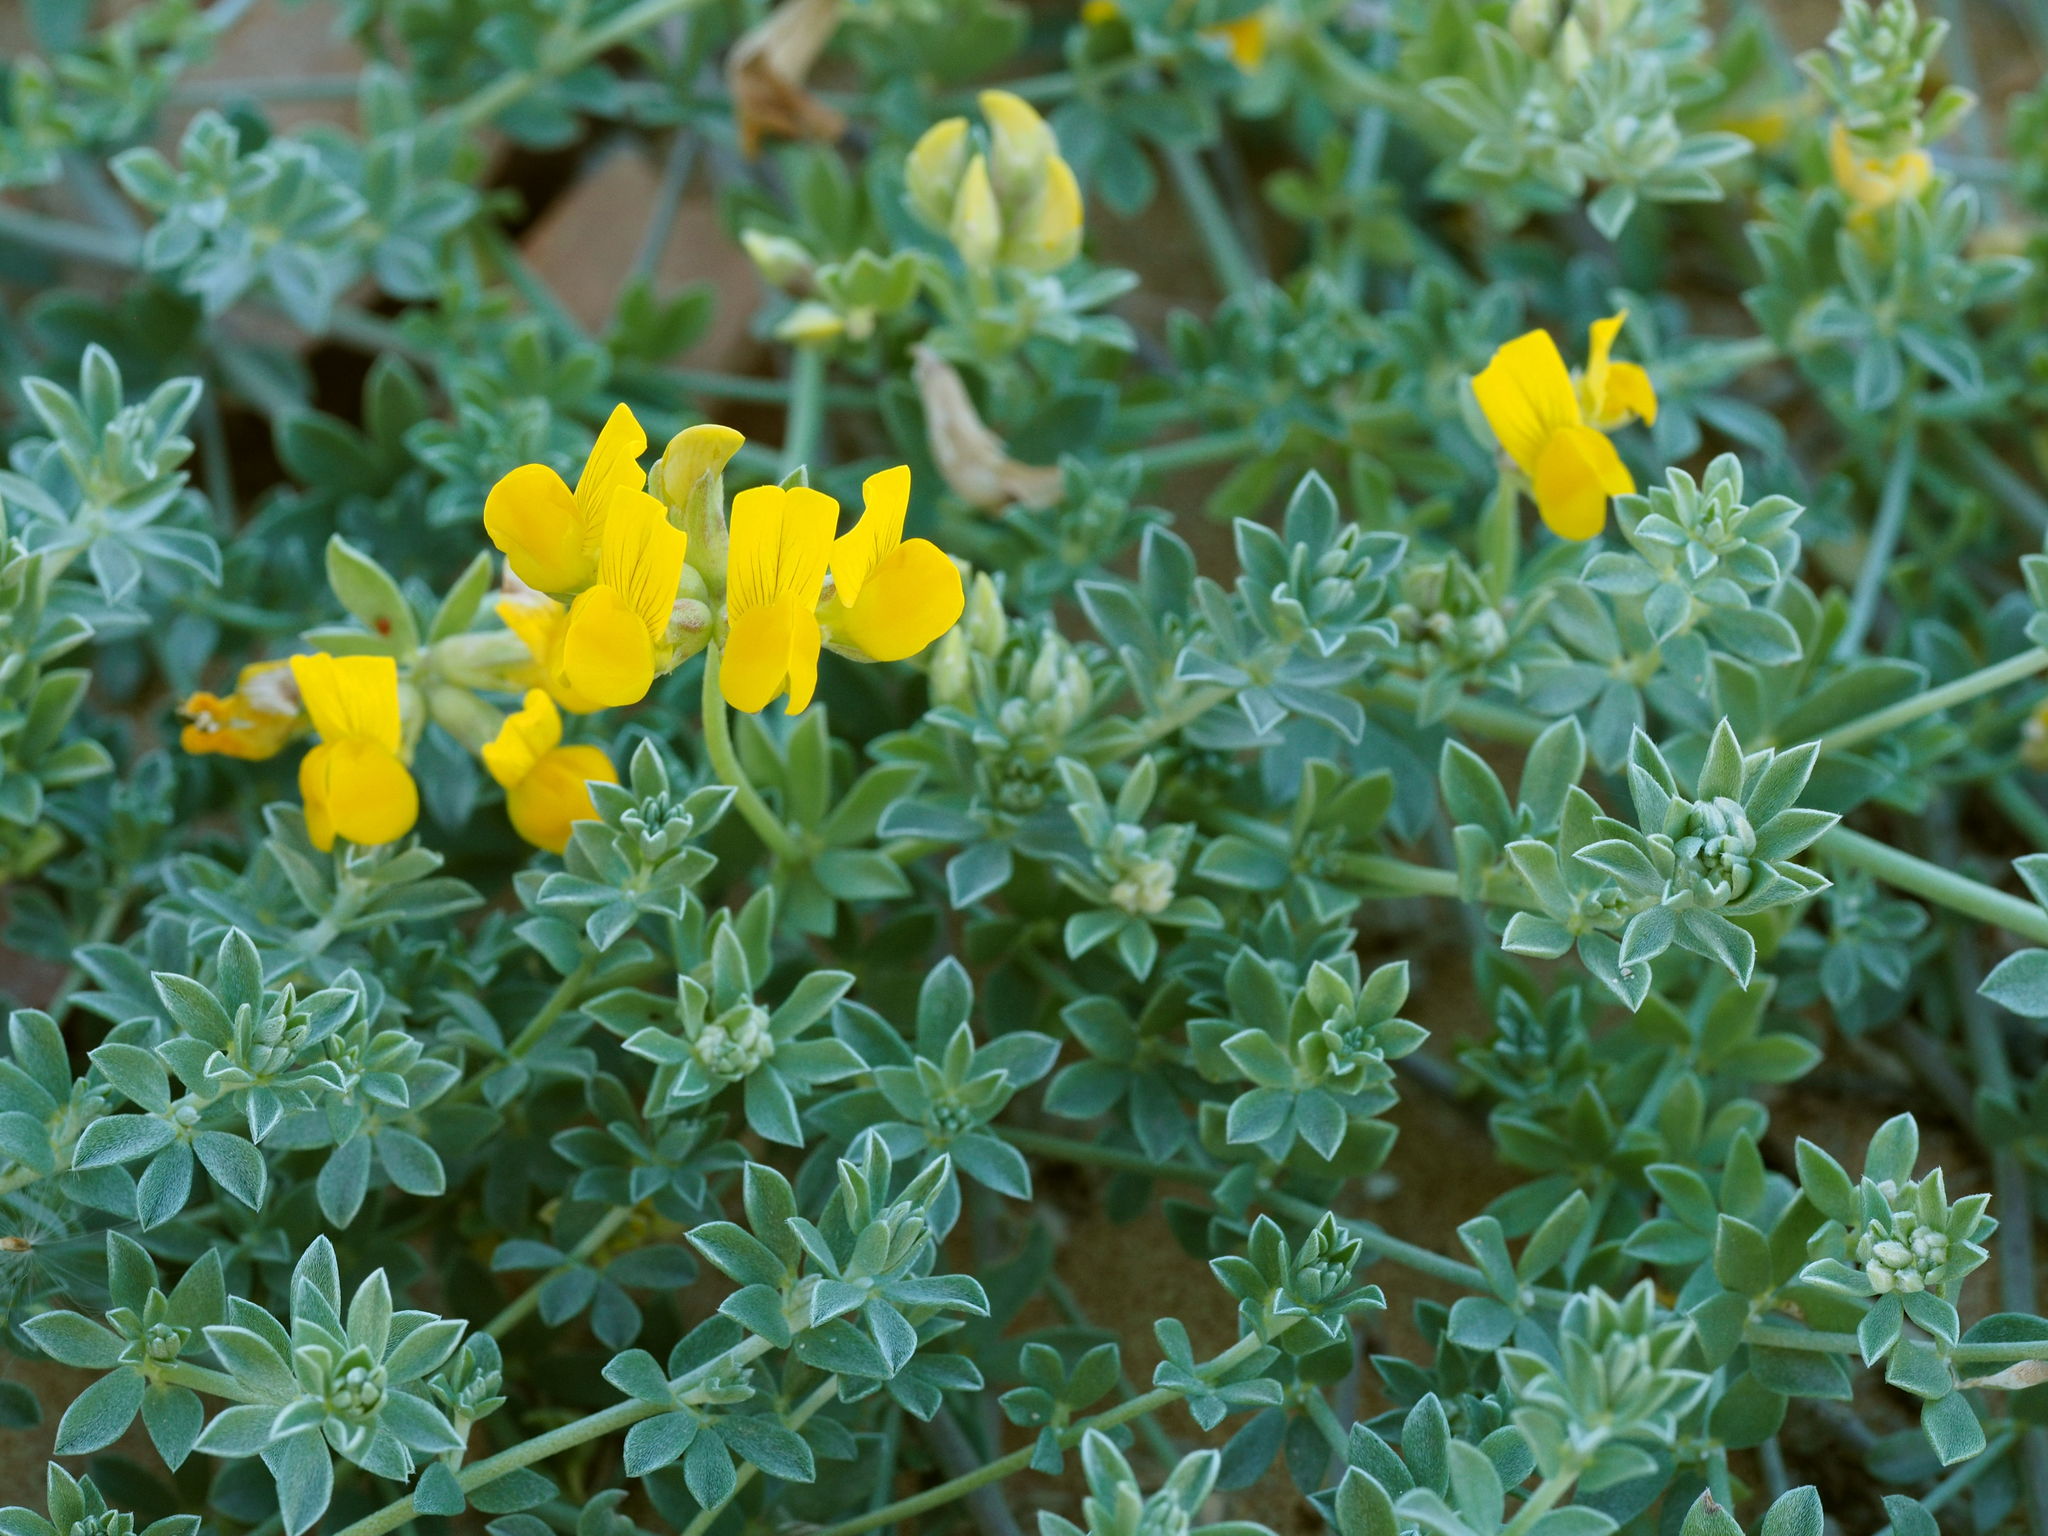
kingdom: Plantae
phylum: Tracheophyta
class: Magnoliopsida
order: Fabales
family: Fabaceae
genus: Medicago
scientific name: Medicago marina
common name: Sea medick
